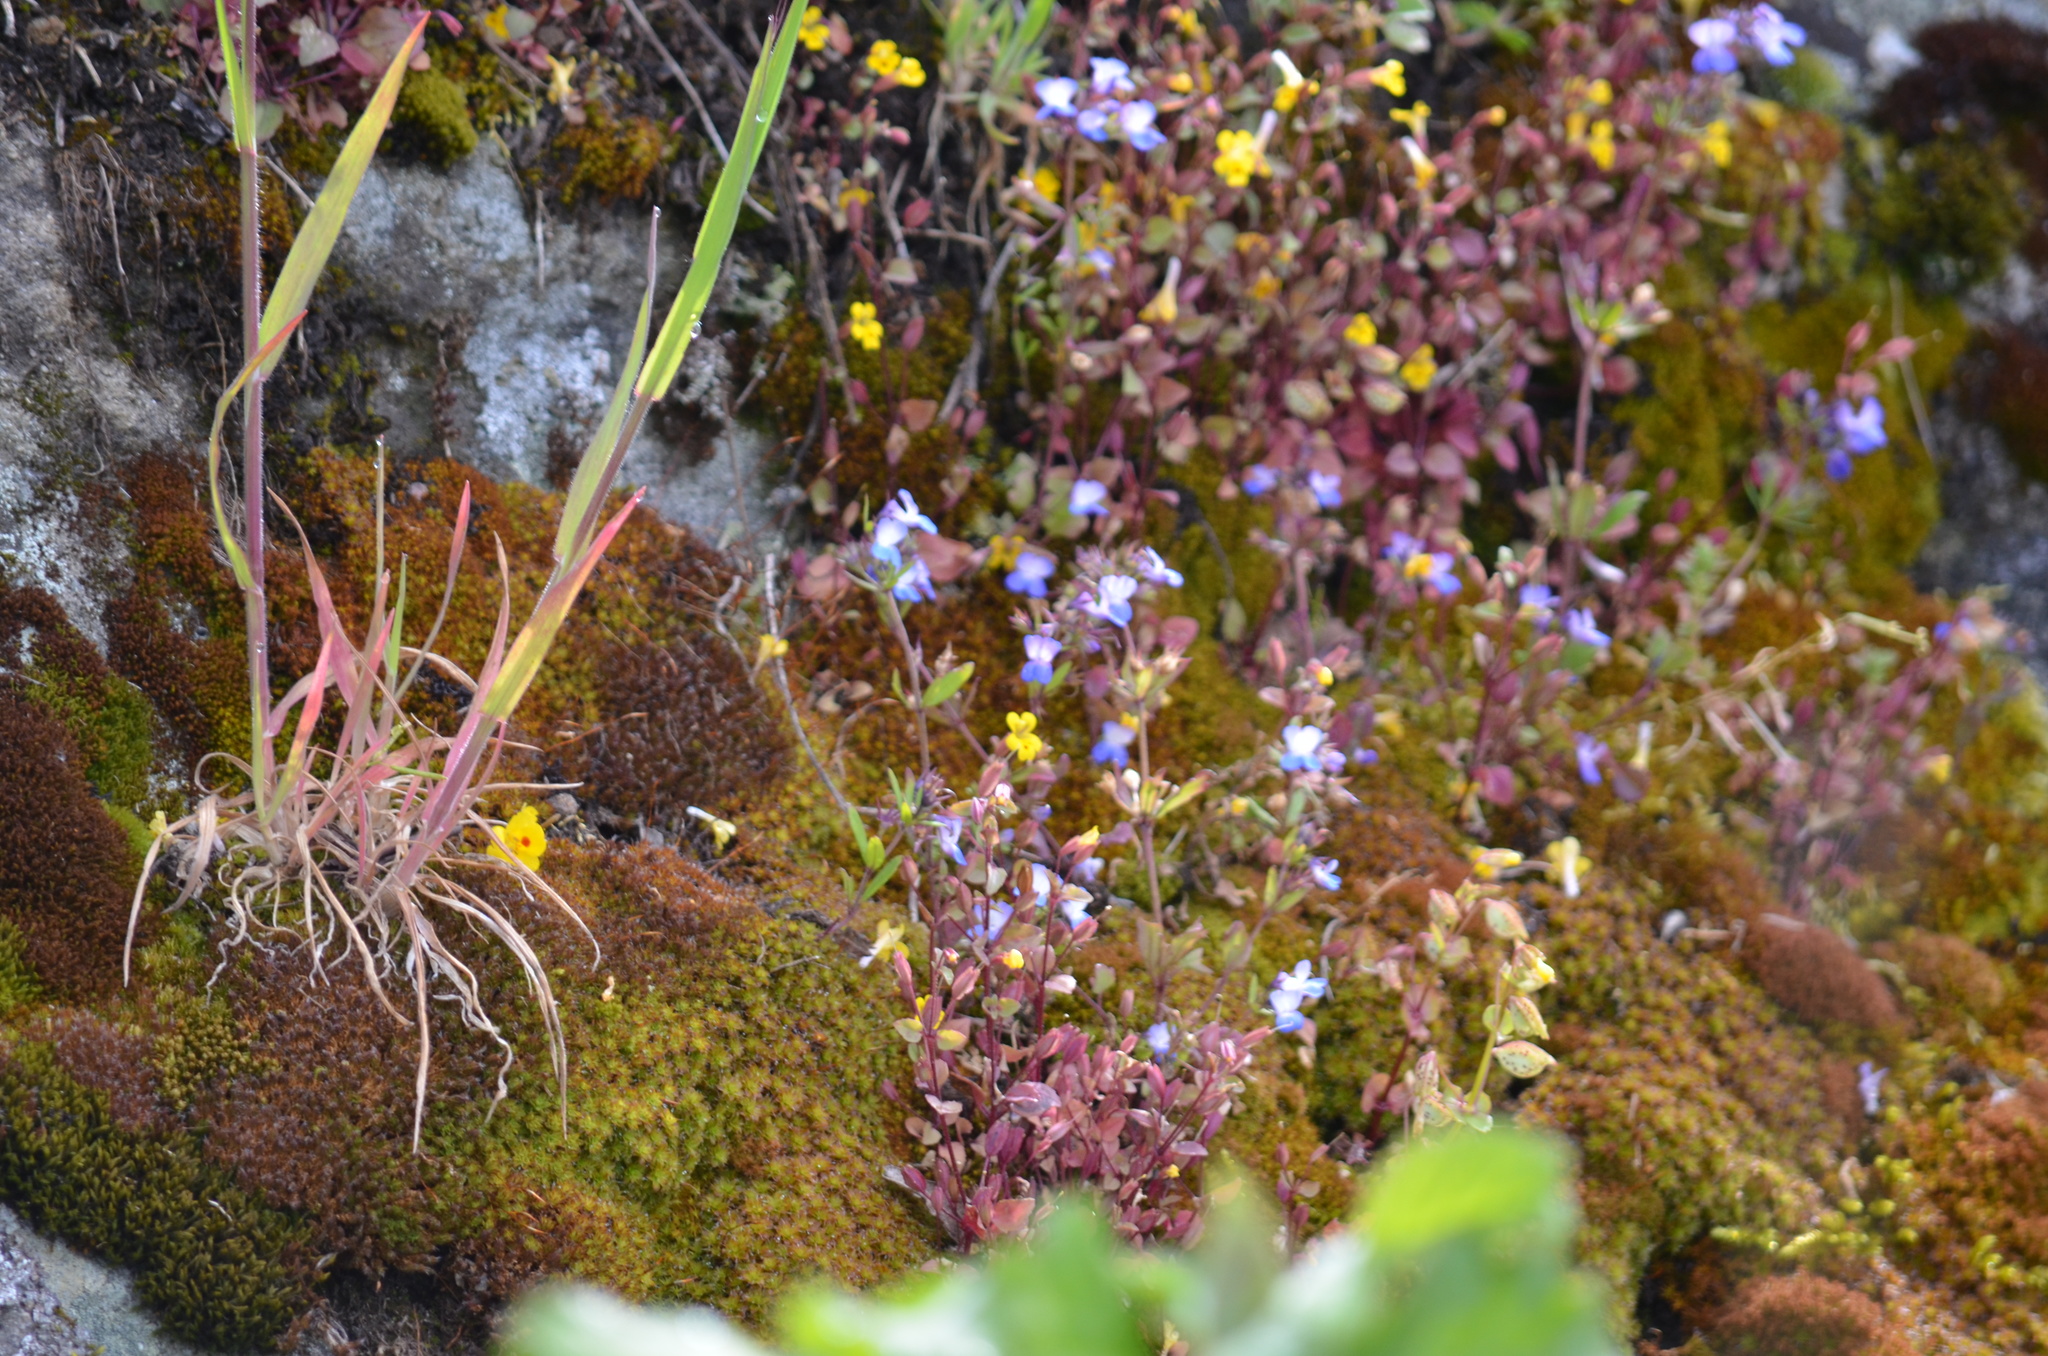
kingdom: Plantae
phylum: Tracheophyta
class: Magnoliopsida
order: Lamiales
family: Plantaginaceae
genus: Collinsia
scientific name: Collinsia parviflora
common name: Blue-lips
